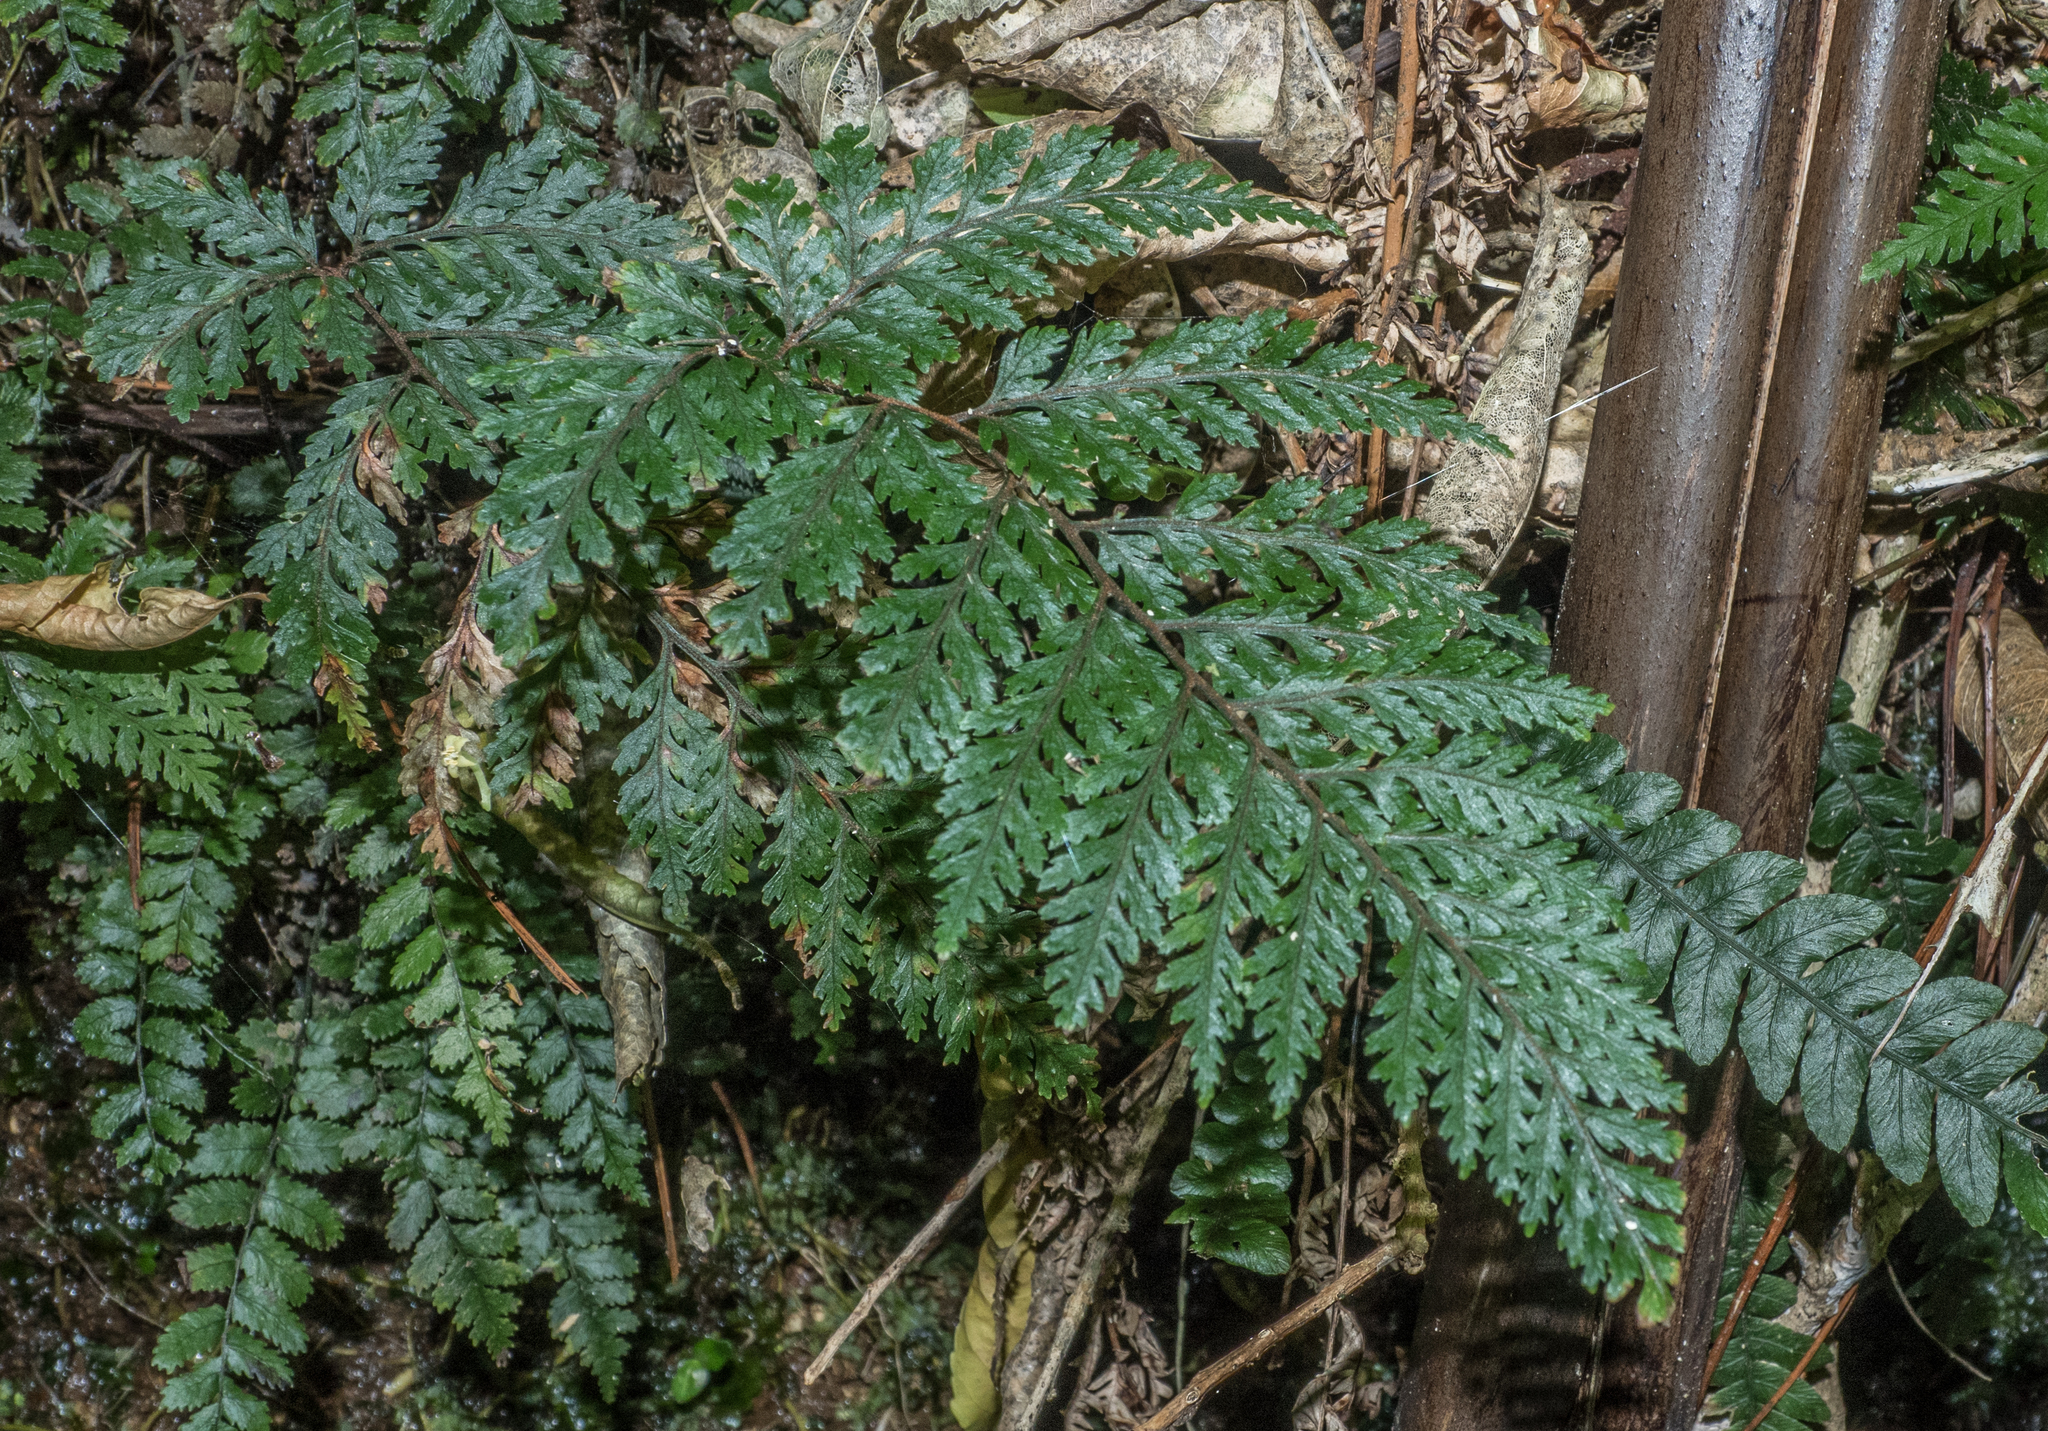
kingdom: Plantae
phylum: Tracheophyta
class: Polypodiopsida
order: Polypodiales
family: Dryopteridaceae
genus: Parapolystichum
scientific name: Parapolystichum glabellum
